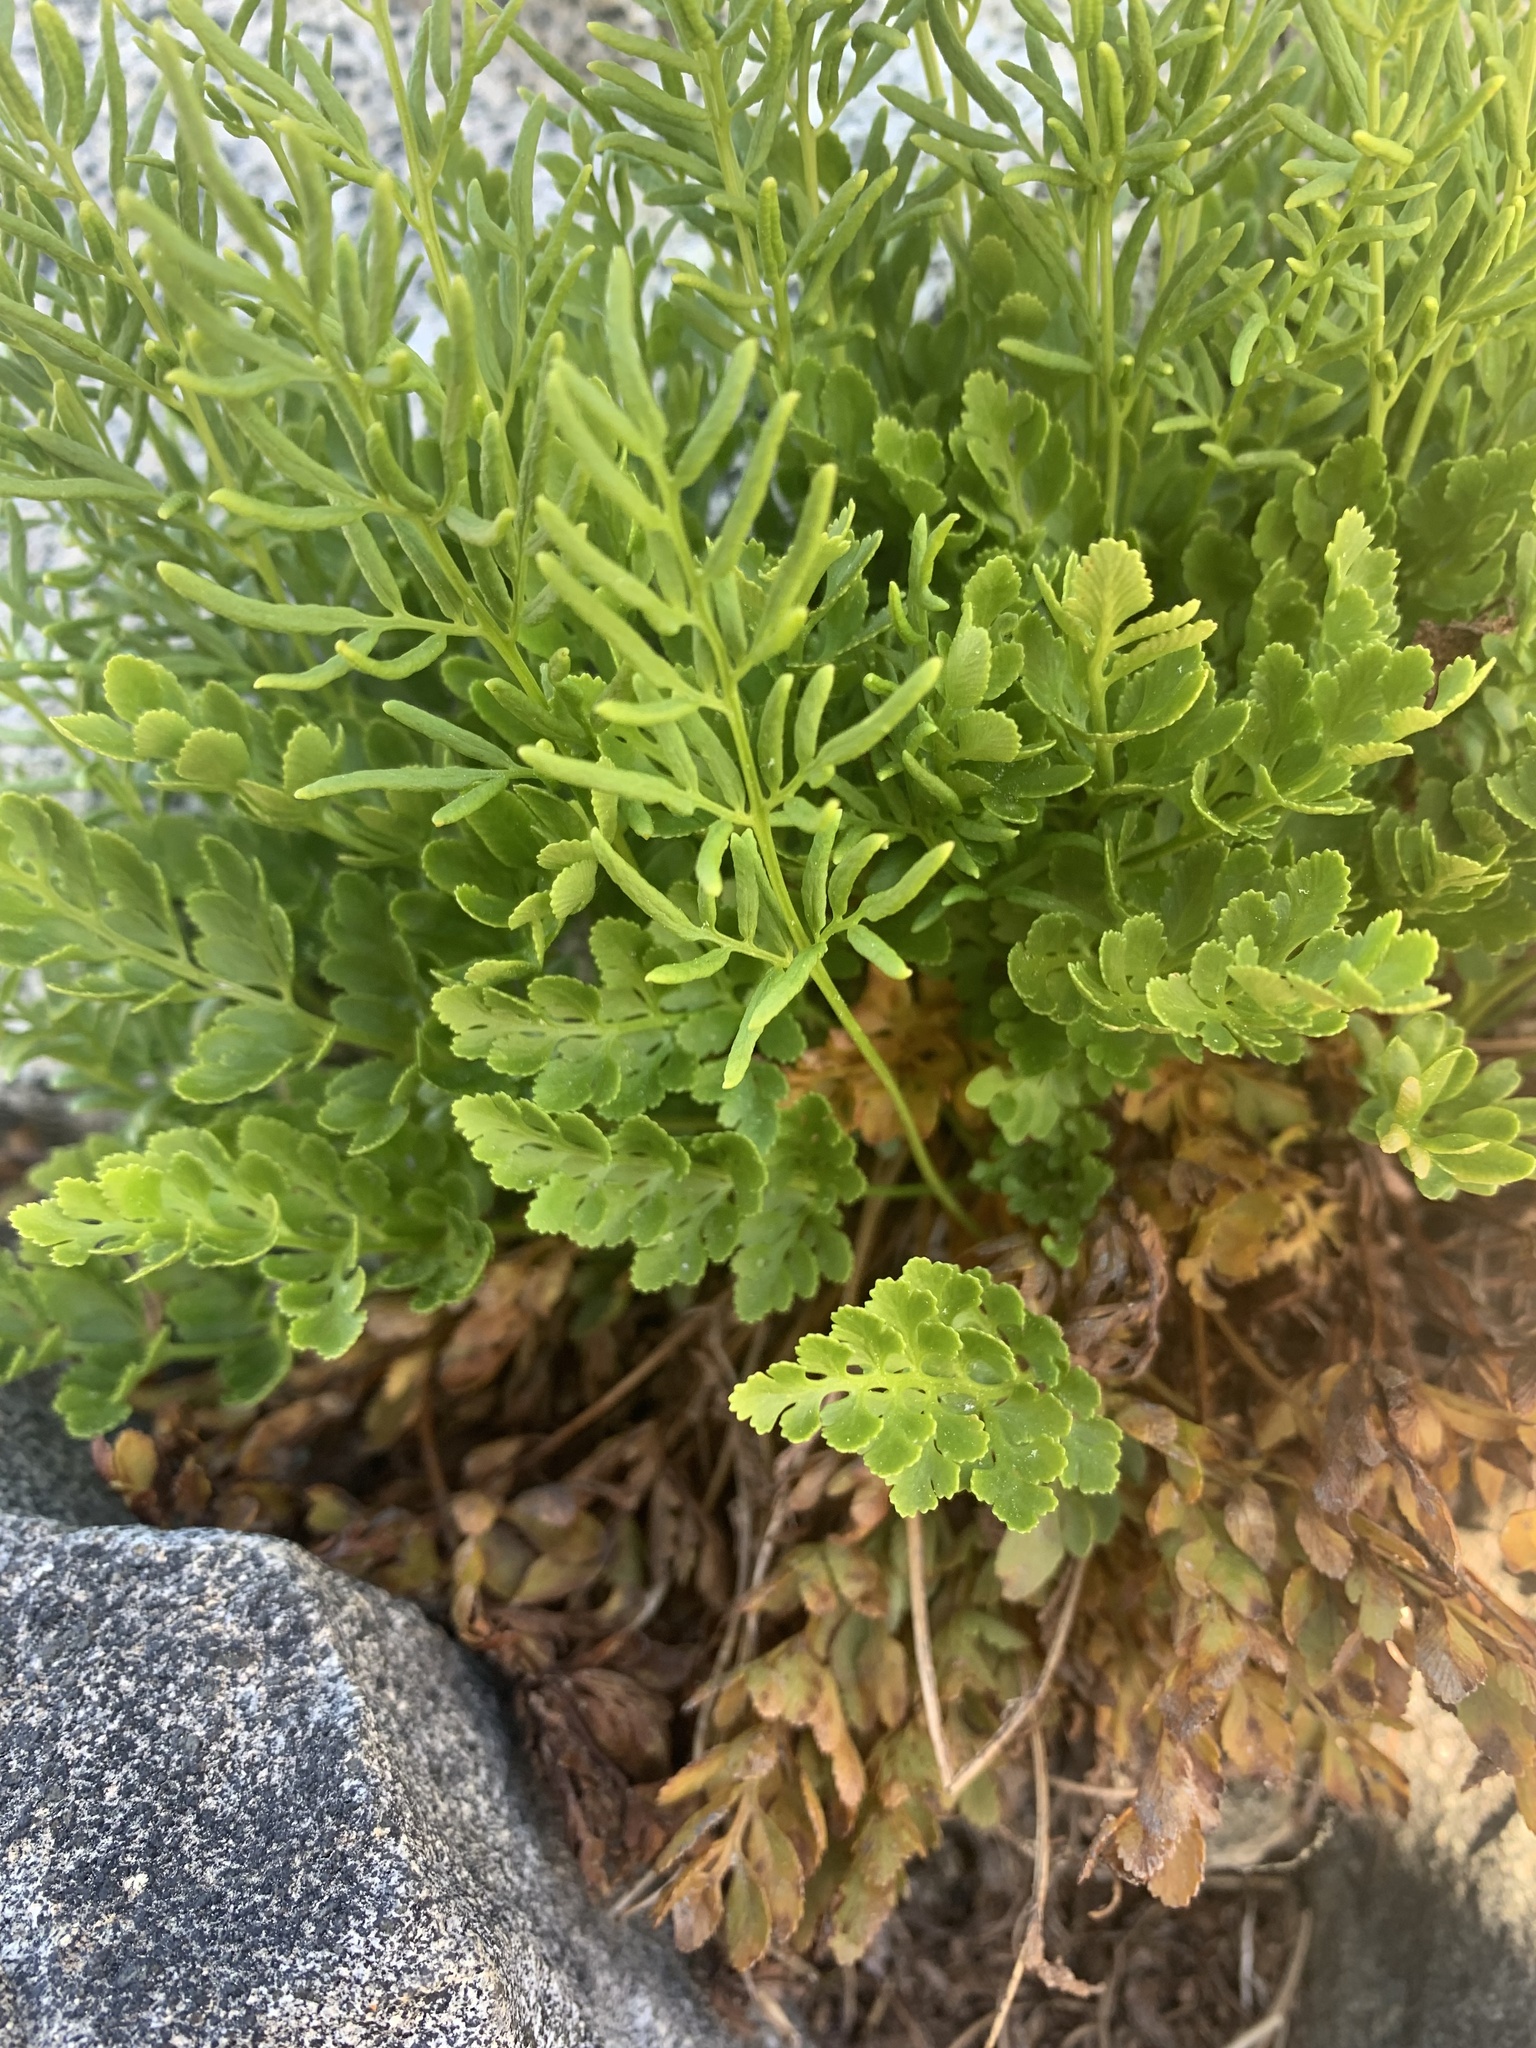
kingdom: Plantae
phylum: Tracheophyta
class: Polypodiopsida
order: Polypodiales
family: Pteridaceae
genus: Cryptogramma
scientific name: Cryptogramma acrostichoides
